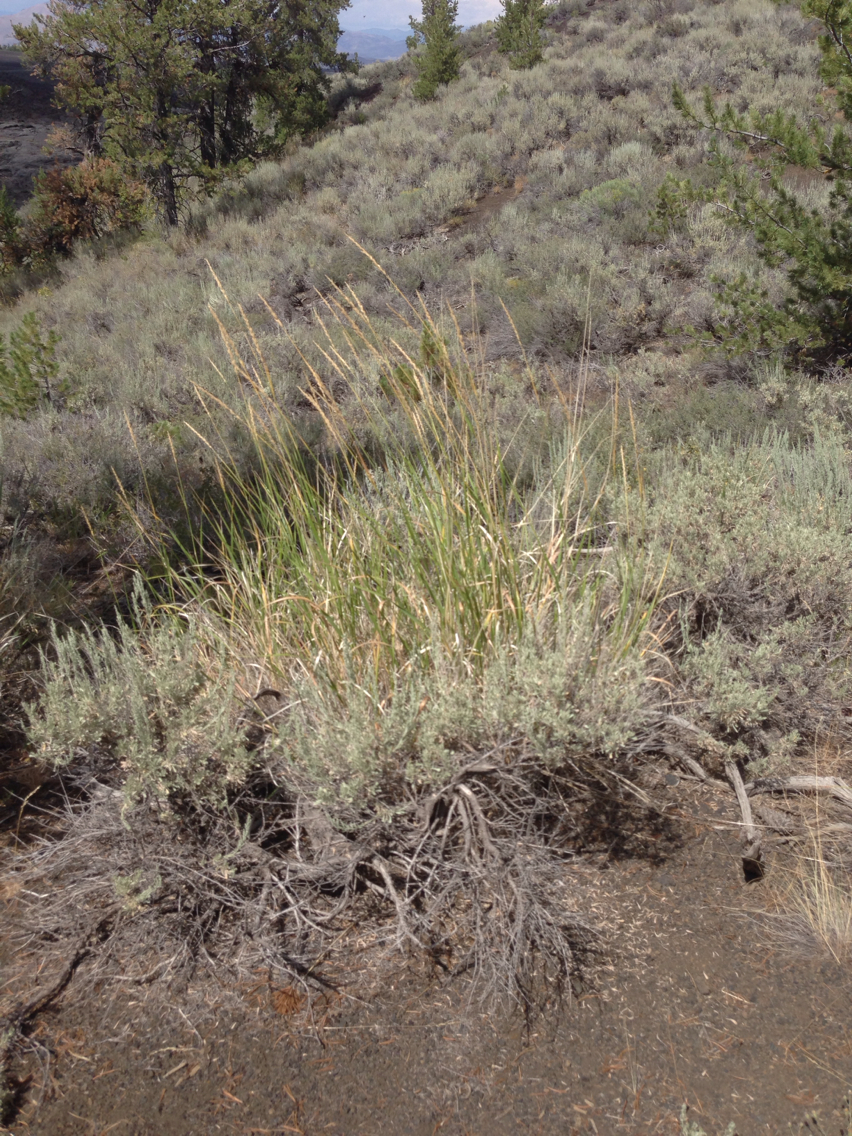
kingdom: Plantae
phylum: Tracheophyta
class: Liliopsida
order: Poales
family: Poaceae
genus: Leymus
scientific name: Leymus cinereus
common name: Basin wild rye
